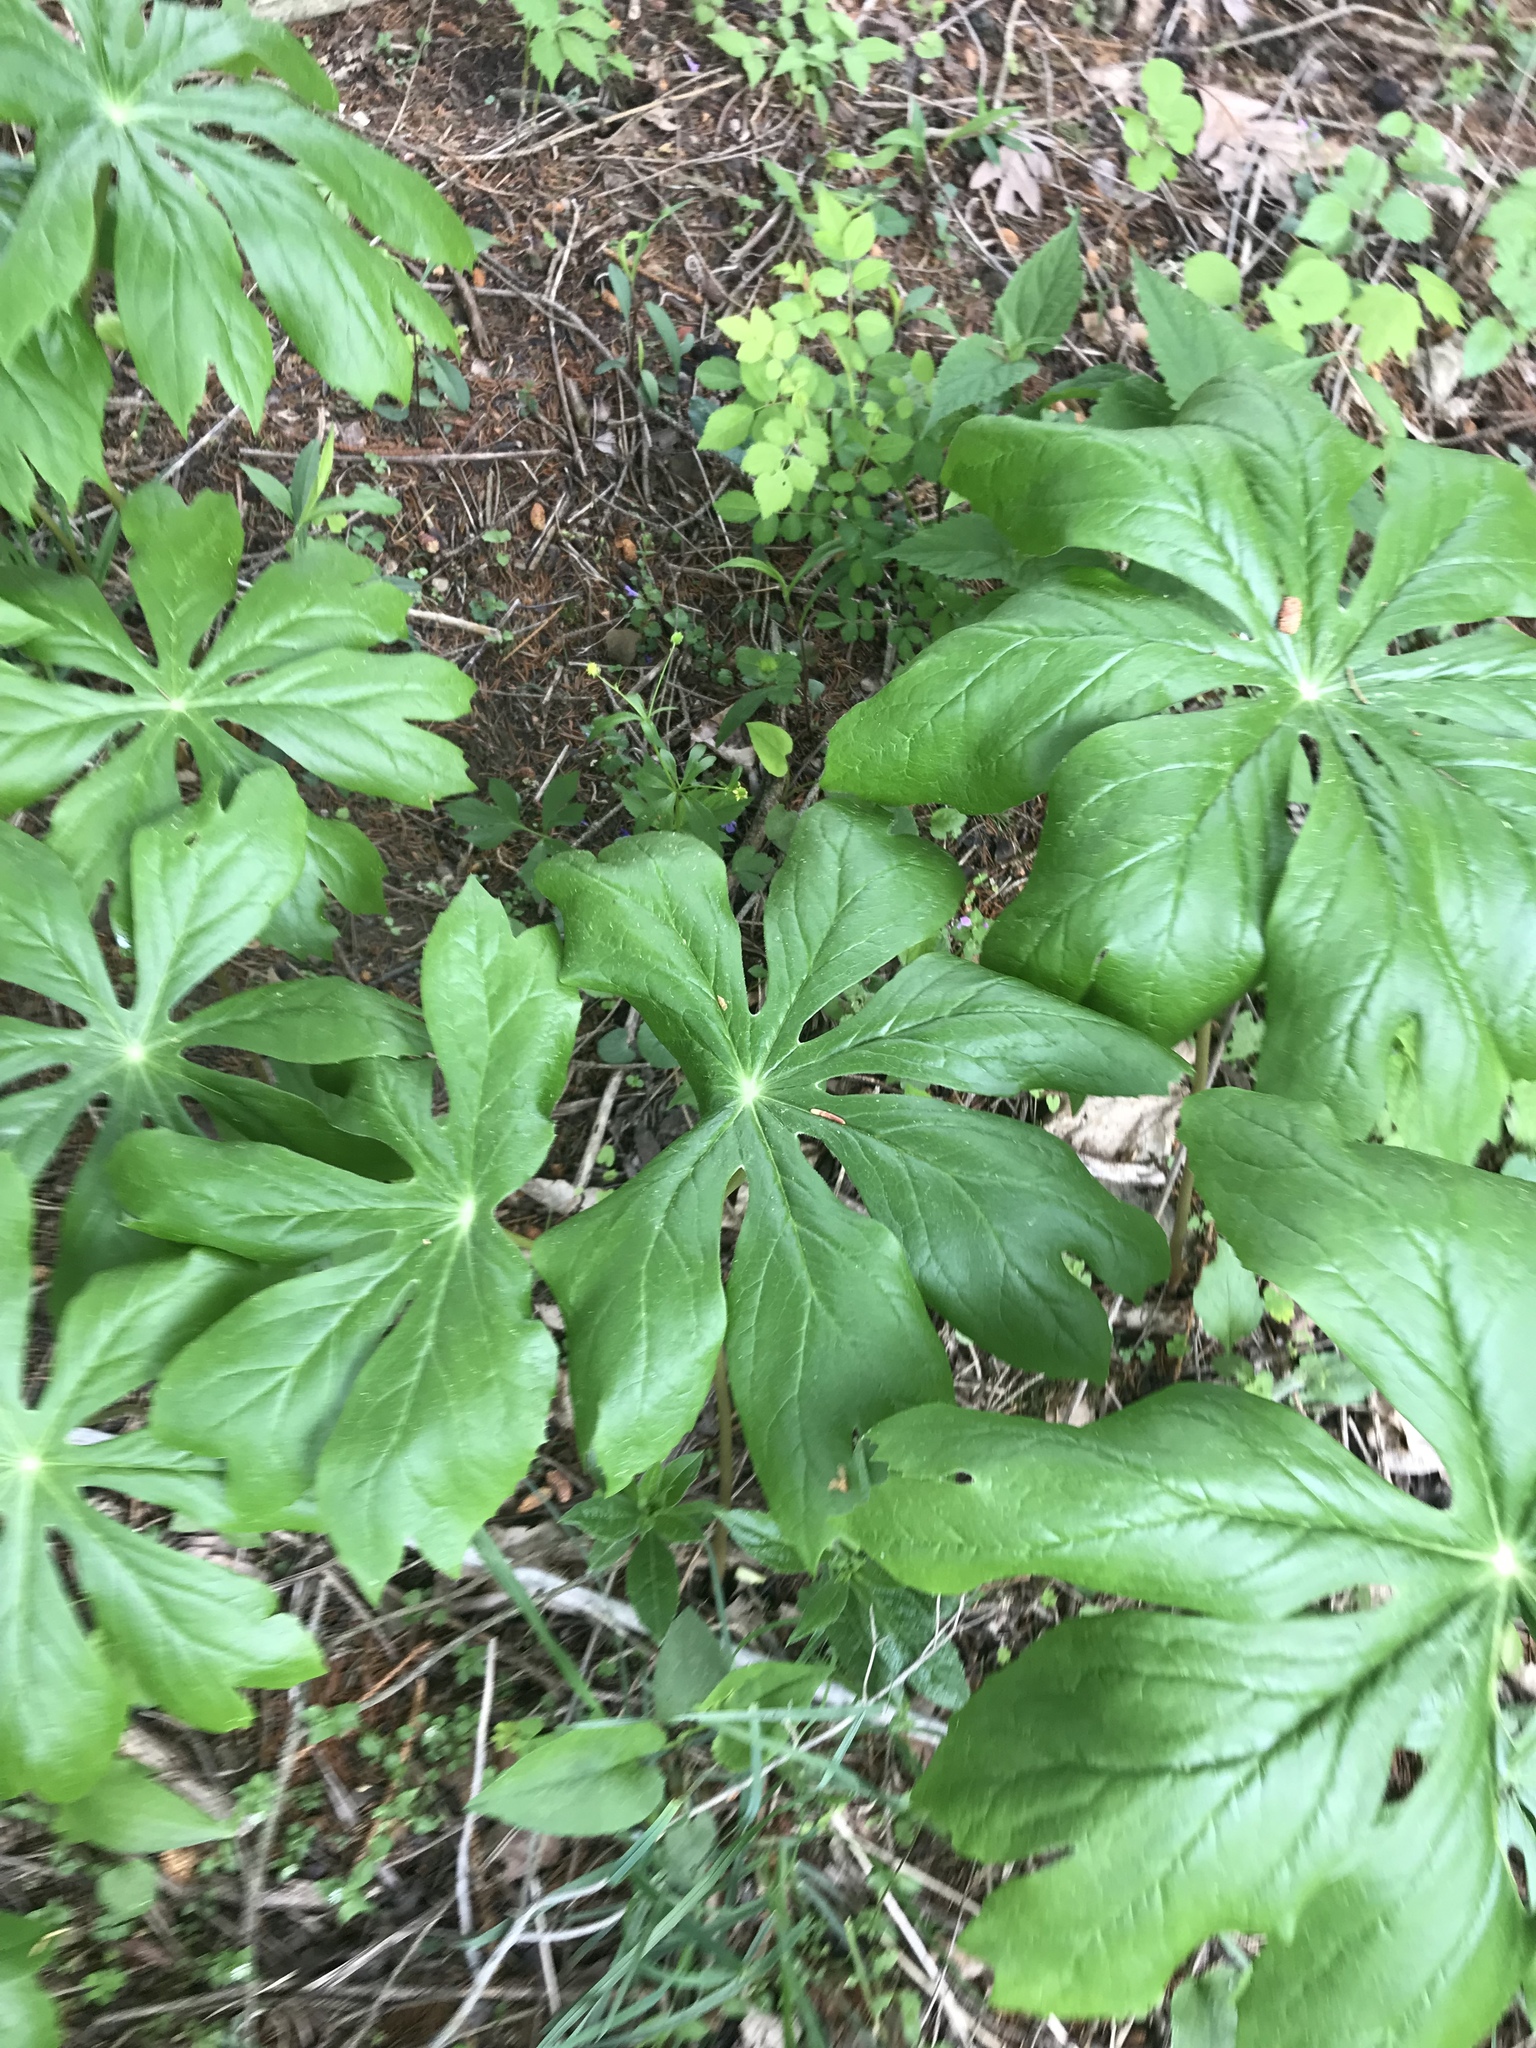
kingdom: Plantae
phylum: Tracheophyta
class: Magnoliopsida
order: Ranunculales
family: Berberidaceae
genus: Podophyllum
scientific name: Podophyllum peltatum
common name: Wild mandrake
